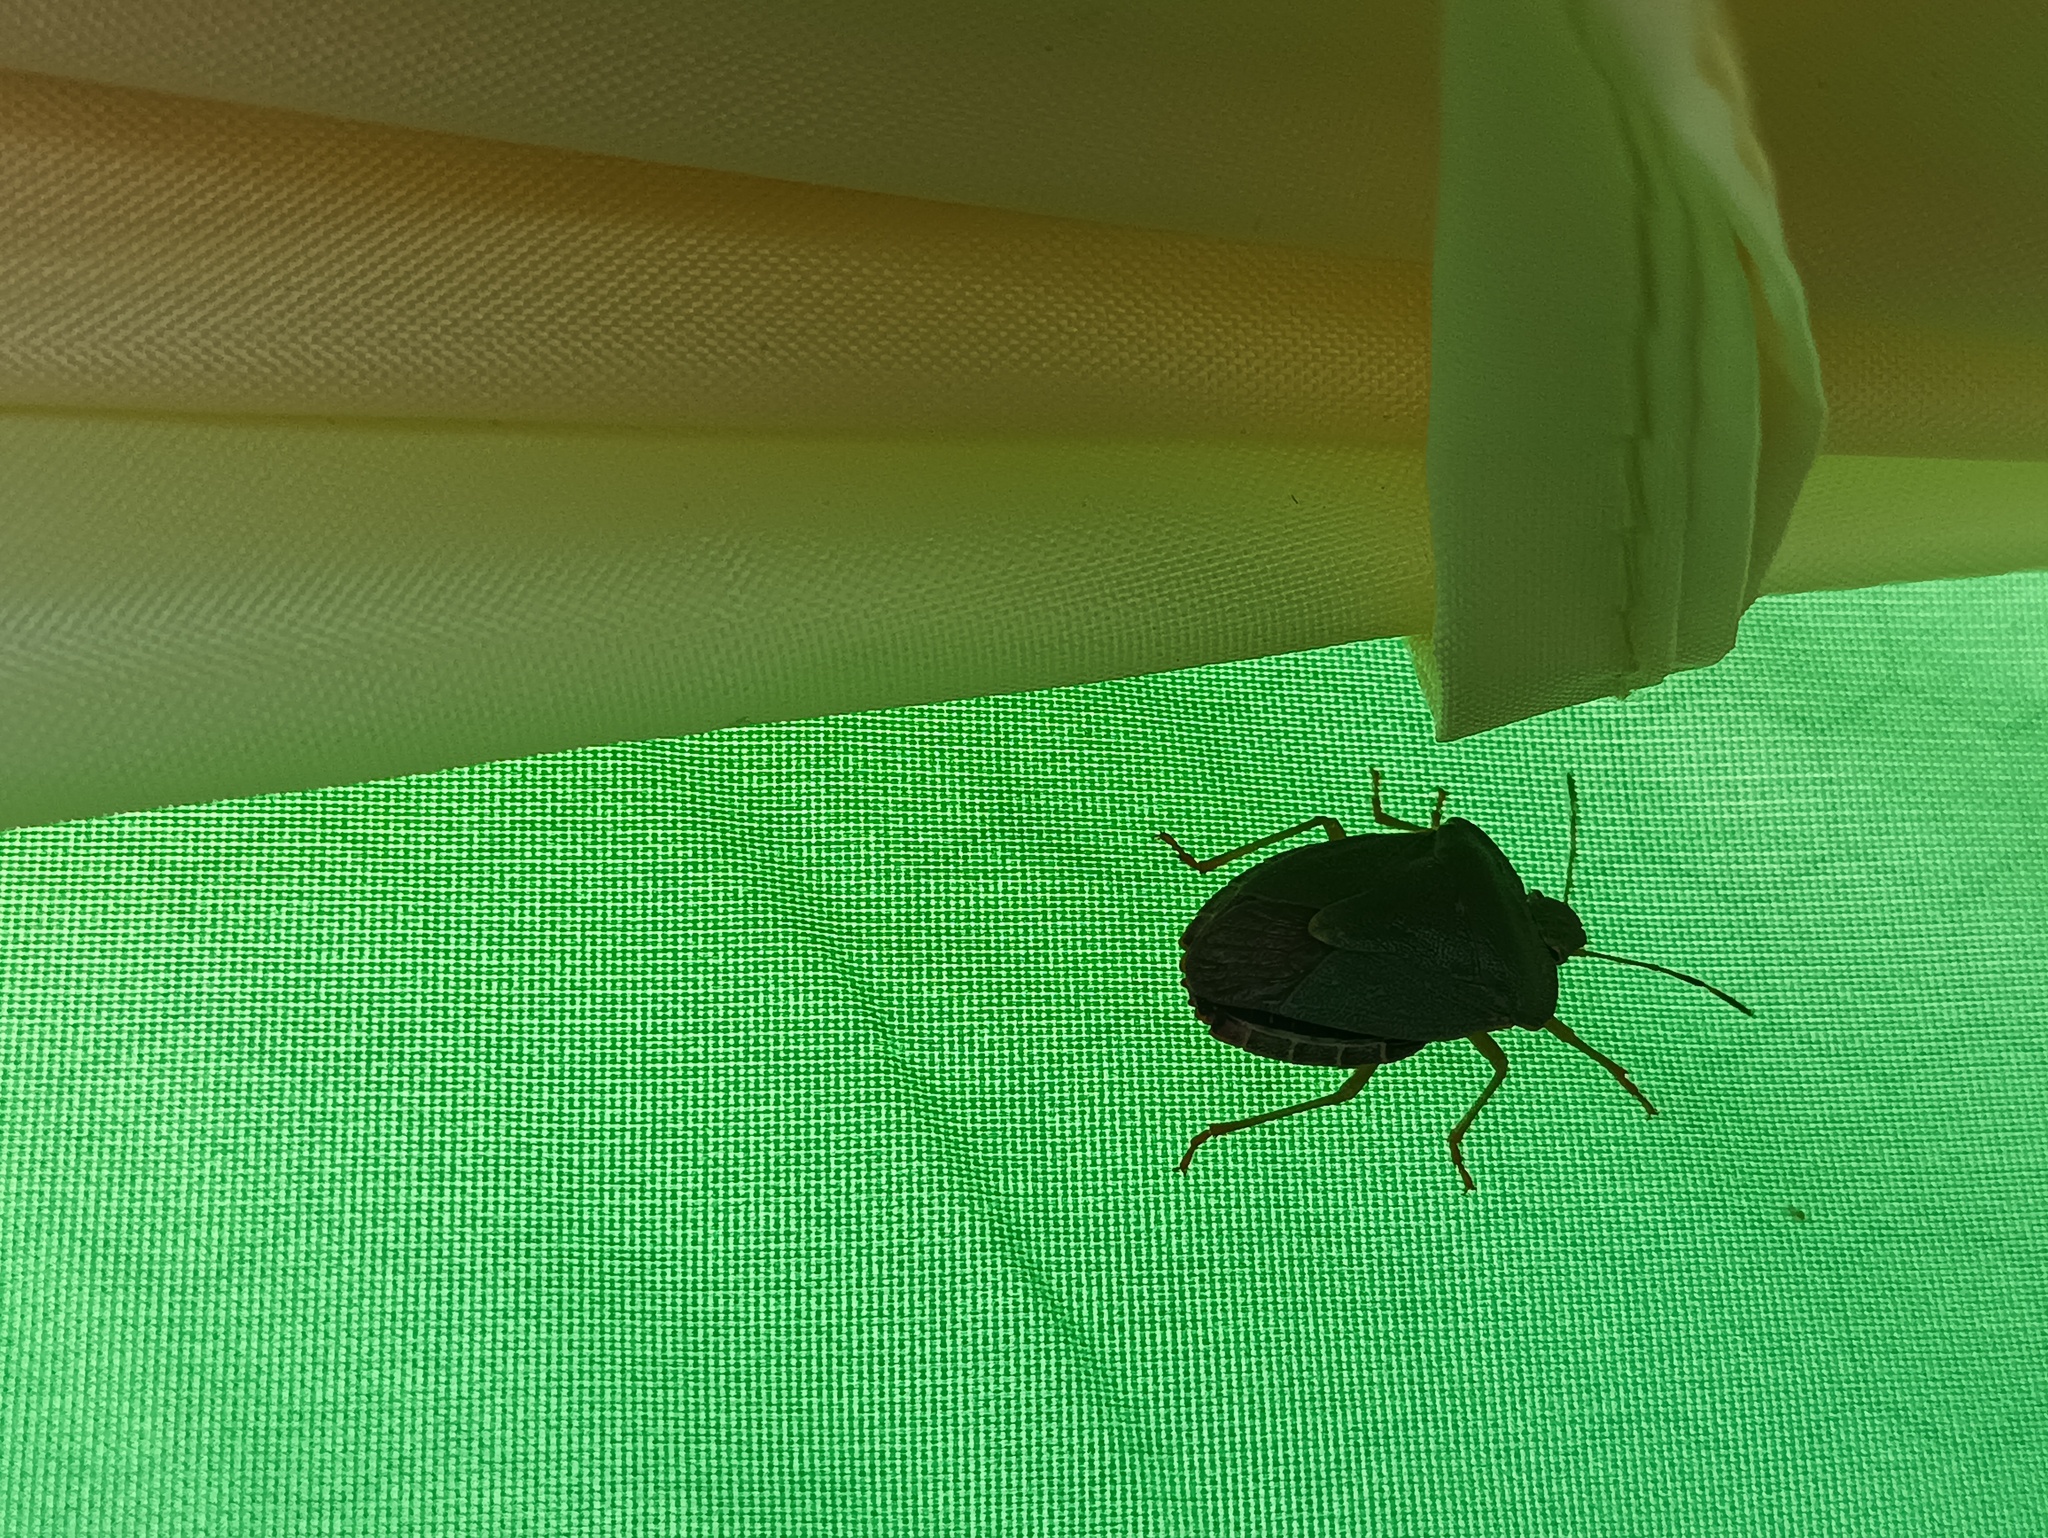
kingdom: Animalia
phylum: Arthropoda
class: Insecta
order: Hemiptera
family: Pentatomidae
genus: Palomena
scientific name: Palomena prasina
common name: Green shieldbug
